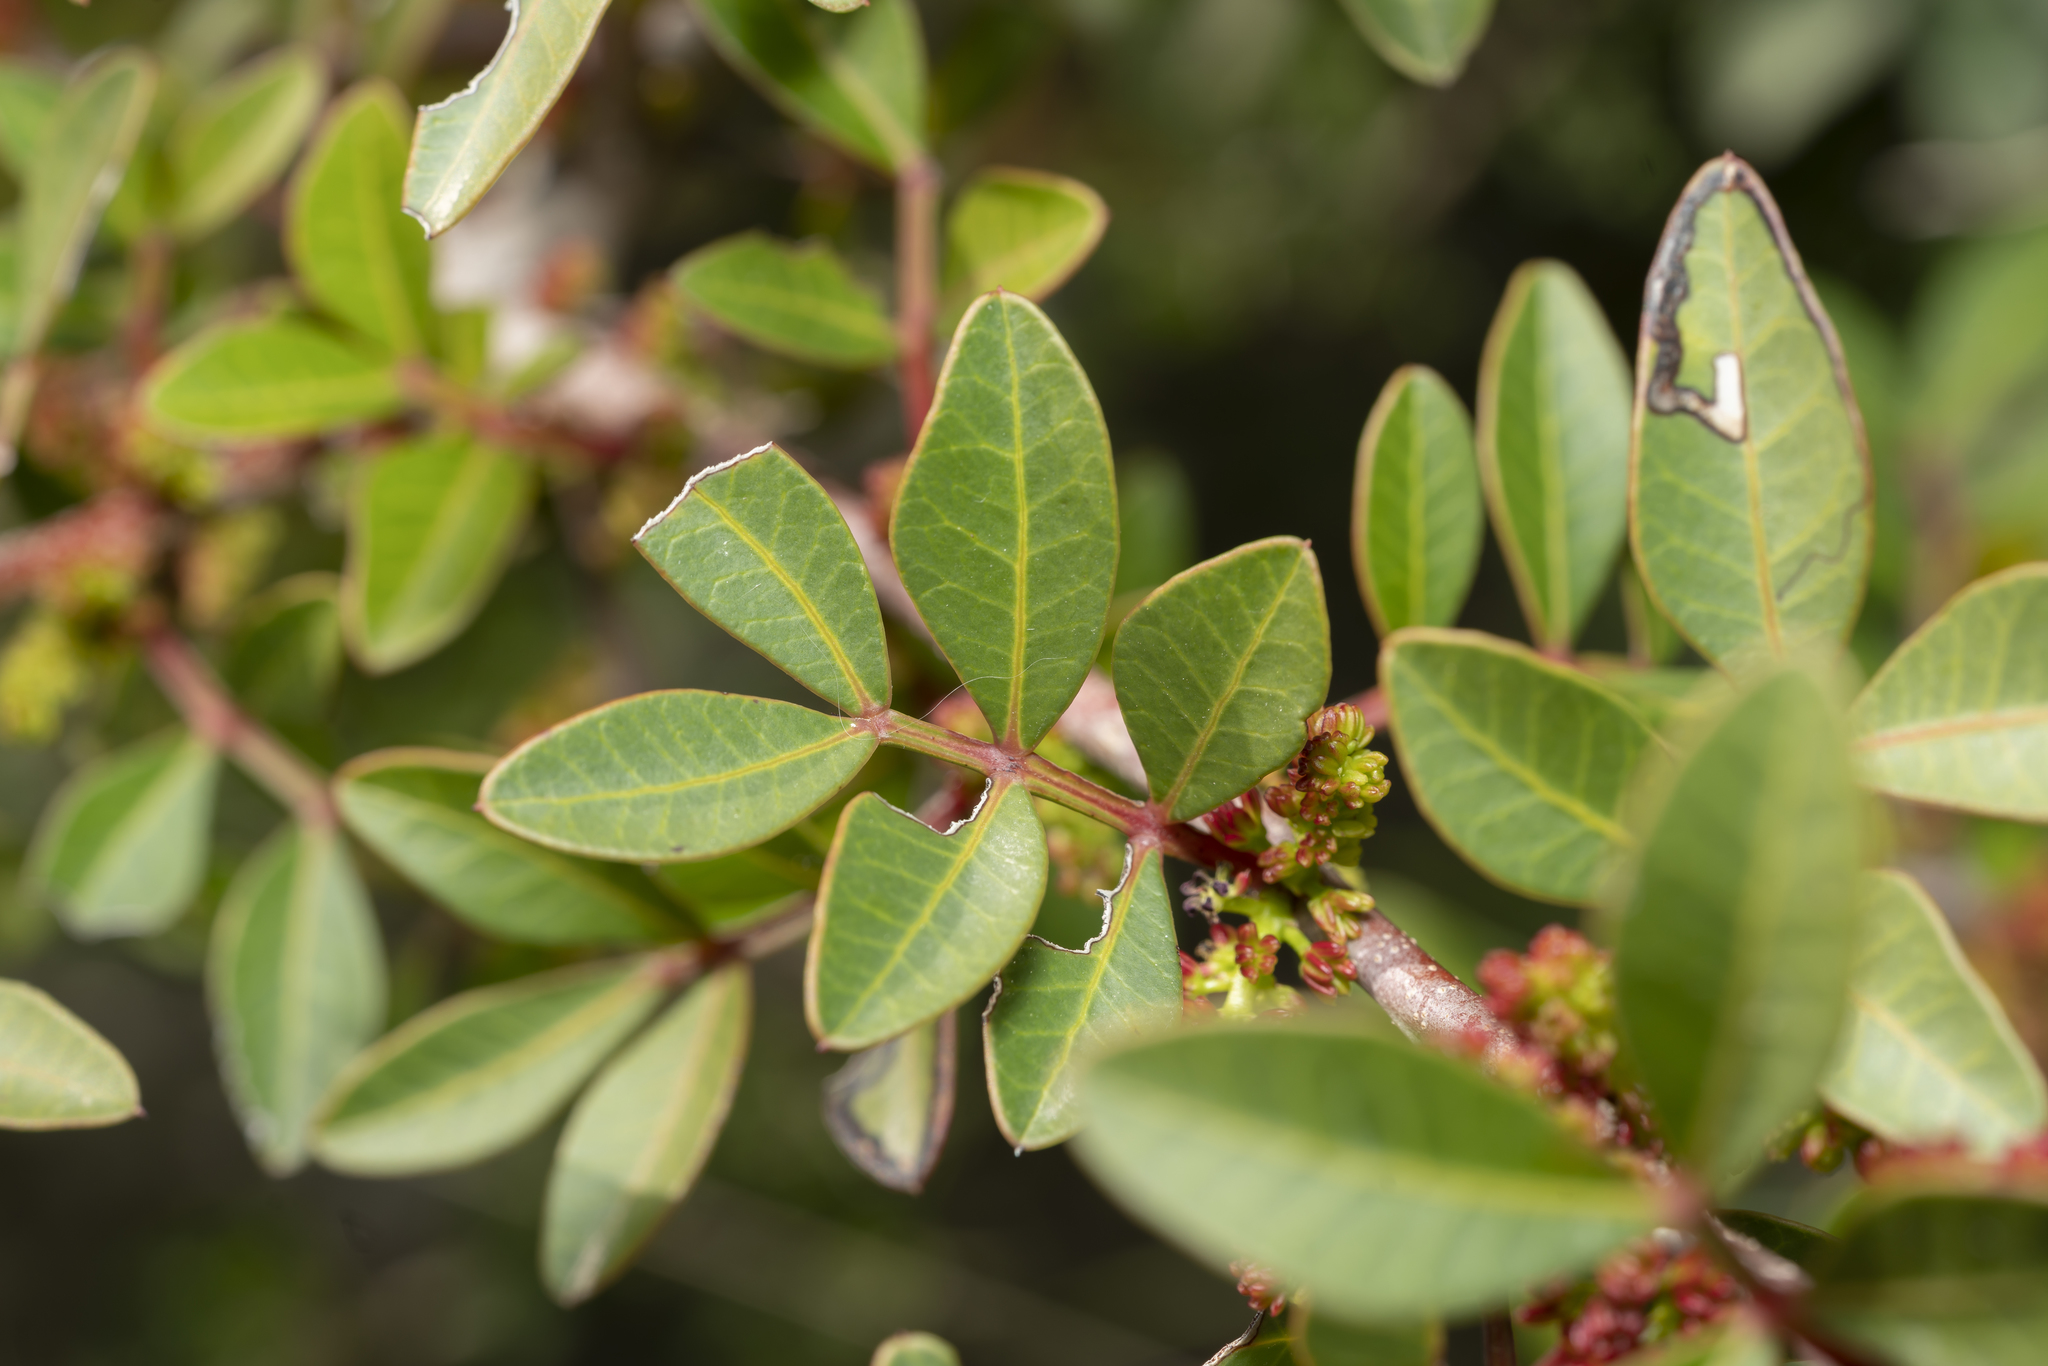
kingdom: Plantae
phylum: Tracheophyta
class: Magnoliopsida
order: Sapindales
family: Anacardiaceae
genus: Pistacia
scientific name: Pistacia lentiscus
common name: Lentisk
